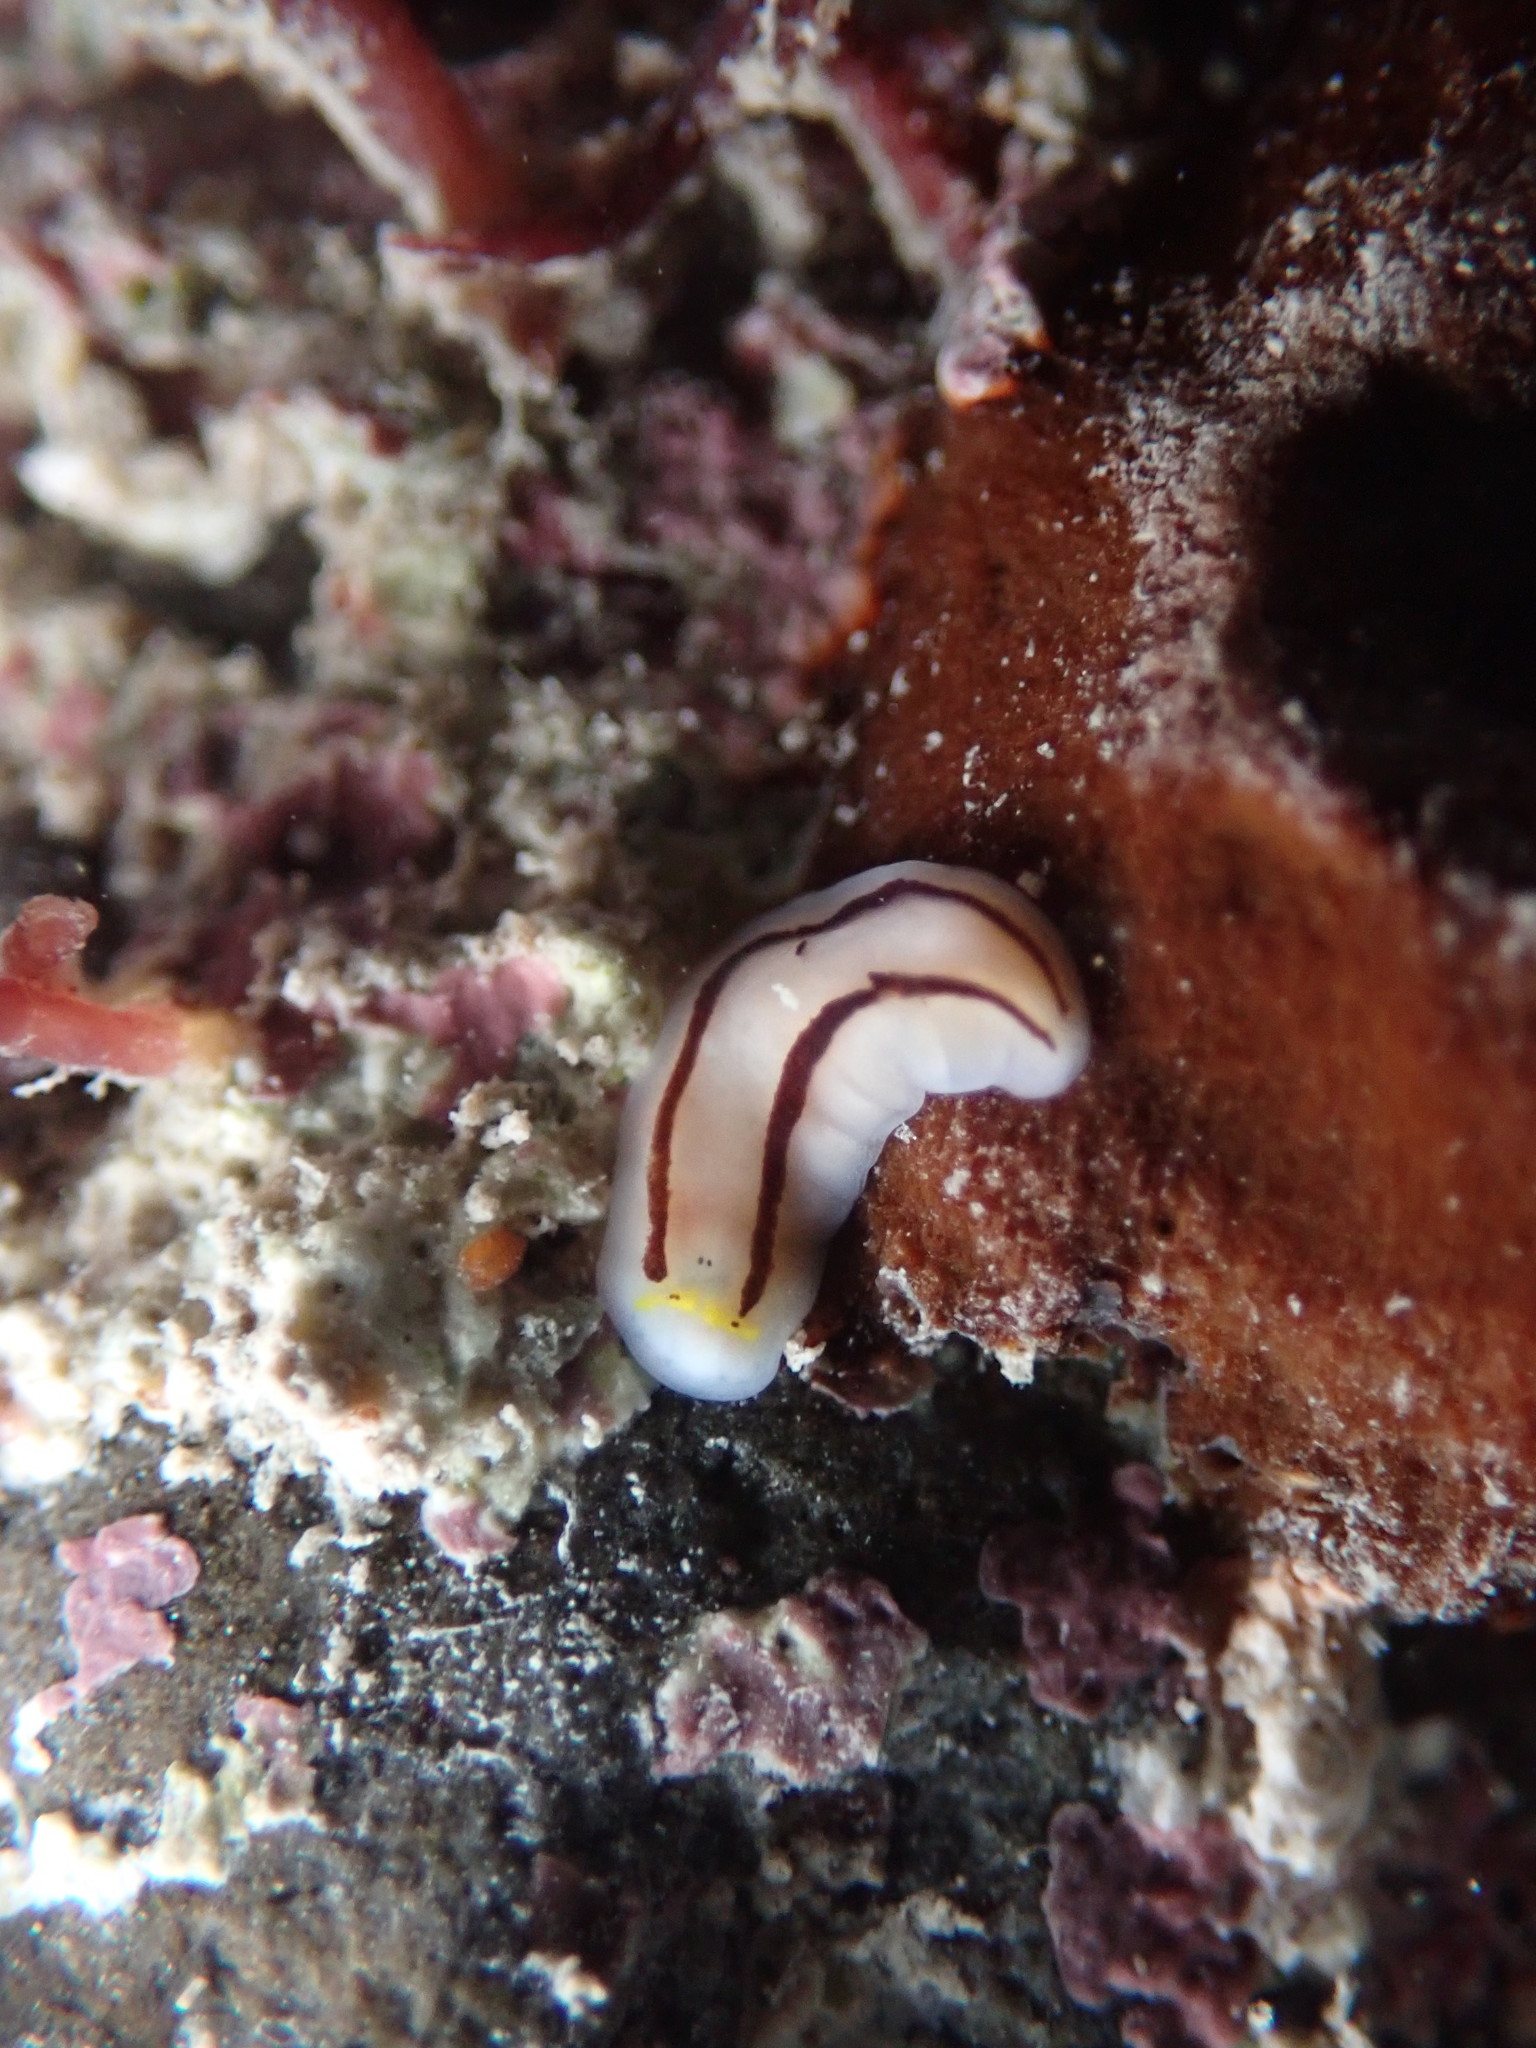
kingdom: Animalia
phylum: Platyhelminthes
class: Turbellaria
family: Chromoplanidae
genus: Chromoplana
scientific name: Chromoplana sirena
